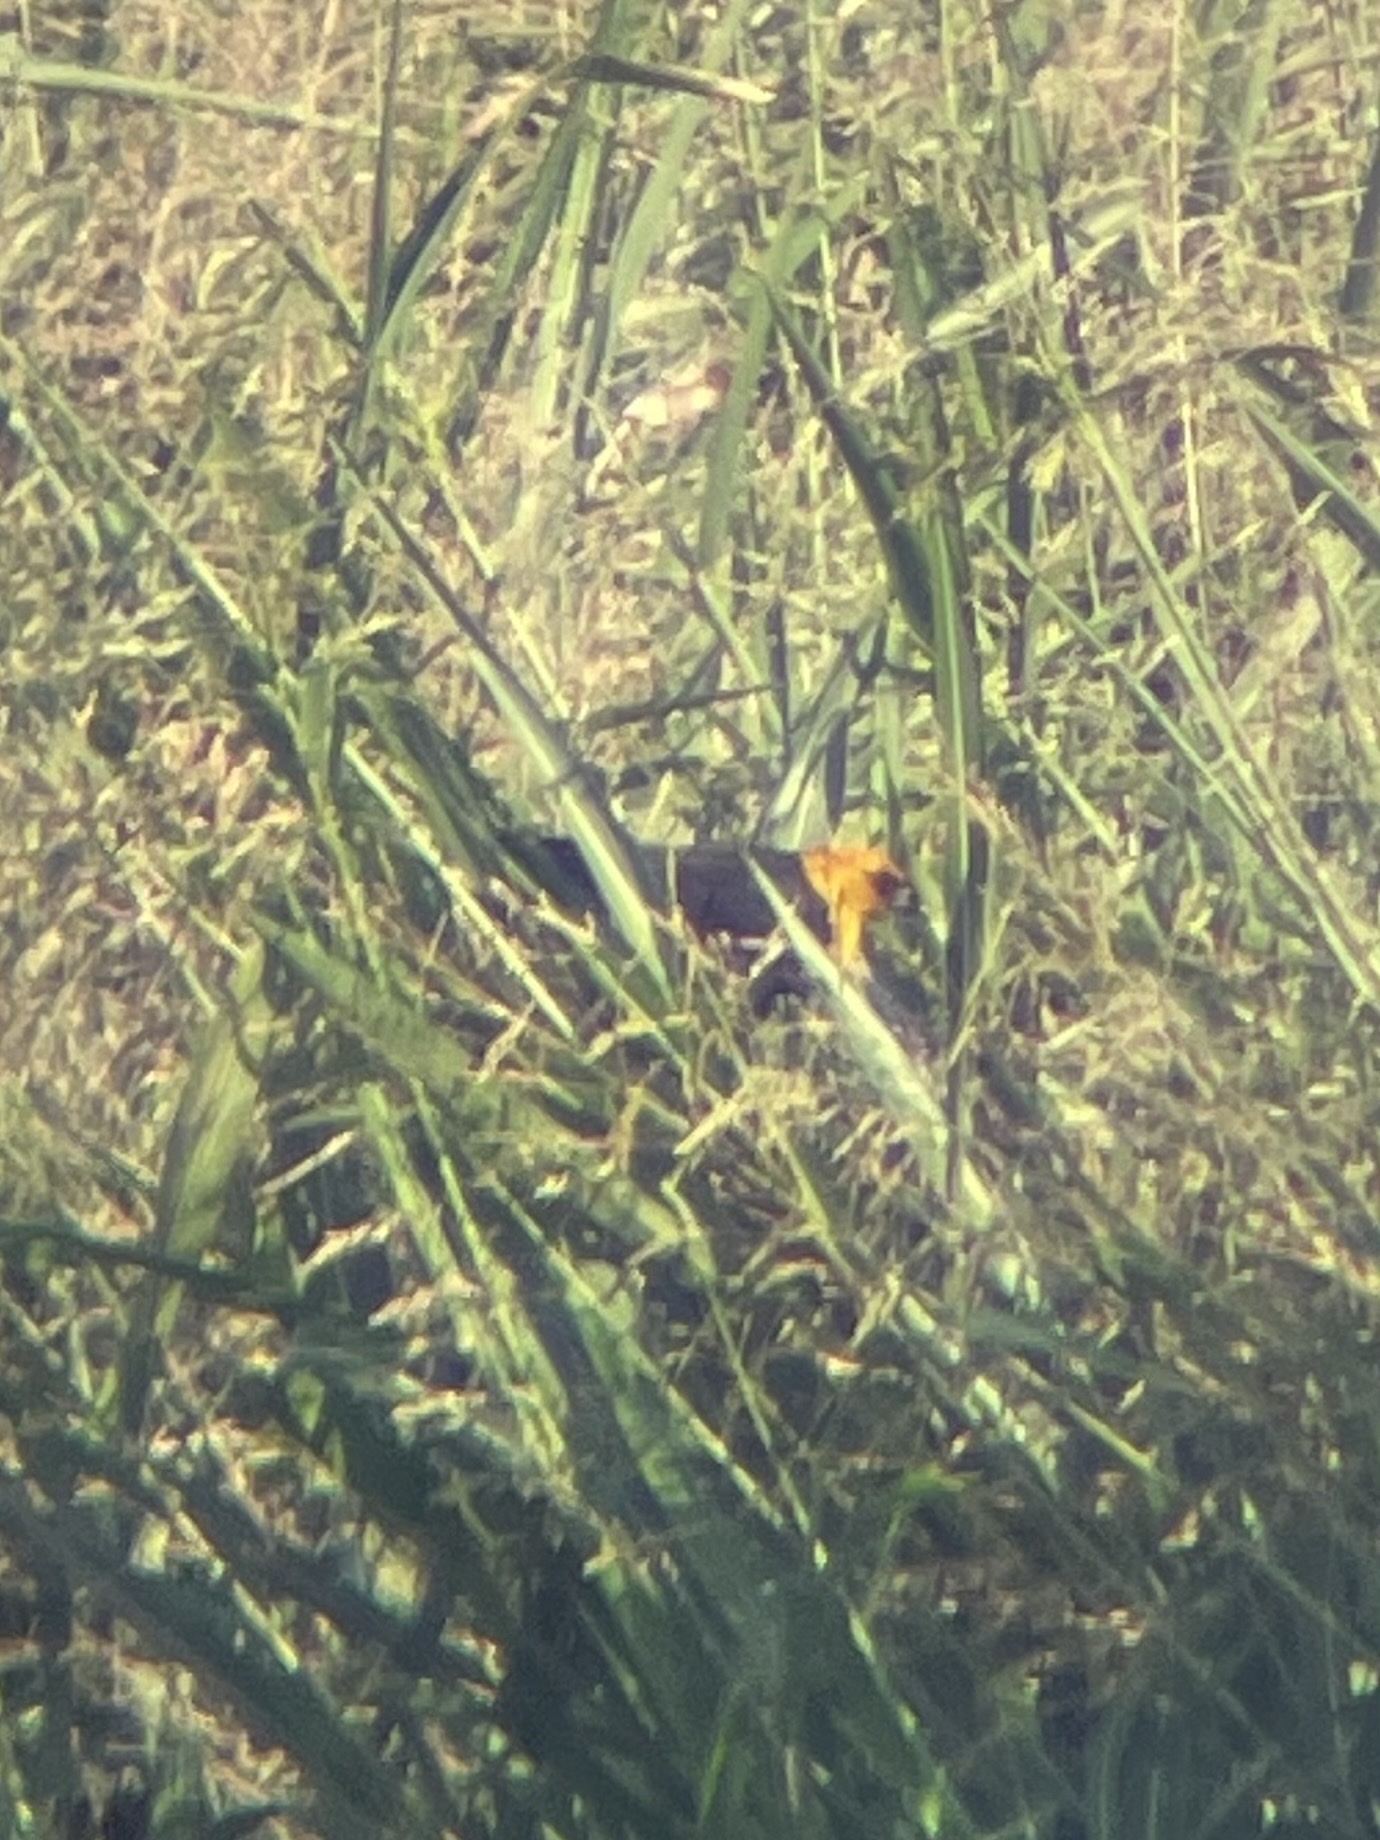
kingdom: Animalia
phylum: Chordata
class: Aves
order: Passeriformes
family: Icteridae
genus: Xanthocephalus
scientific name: Xanthocephalus xanthocephalus
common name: Yellow-headed blackbird
